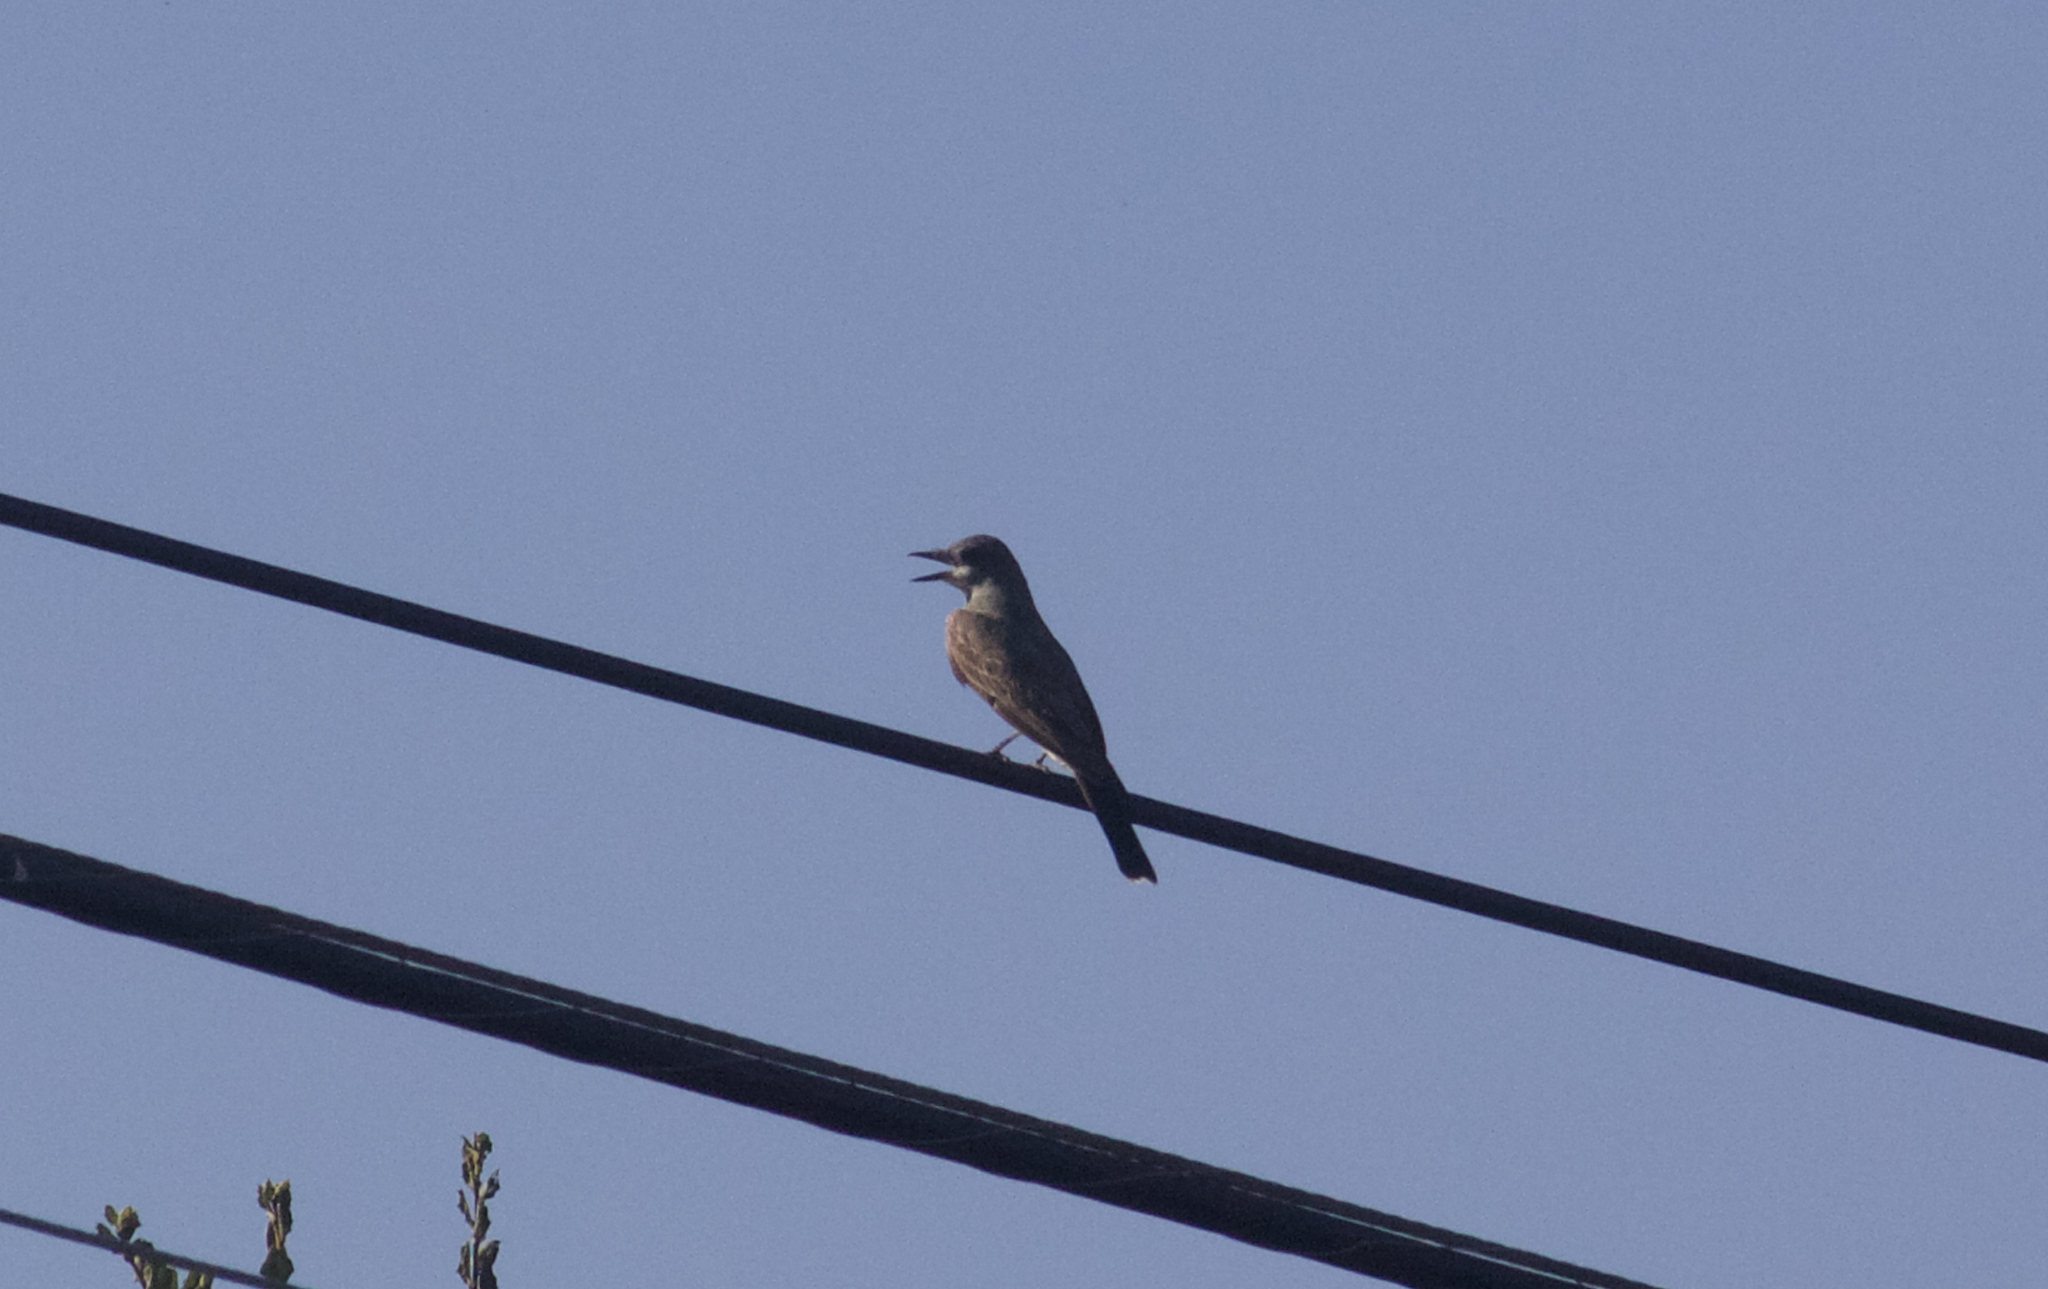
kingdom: Animalia
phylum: Chordata
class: Aves
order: Passeriformes
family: Tyrannidae
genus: Tyrannus
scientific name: Tyrannus vociferans
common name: Cassin's kingbird
